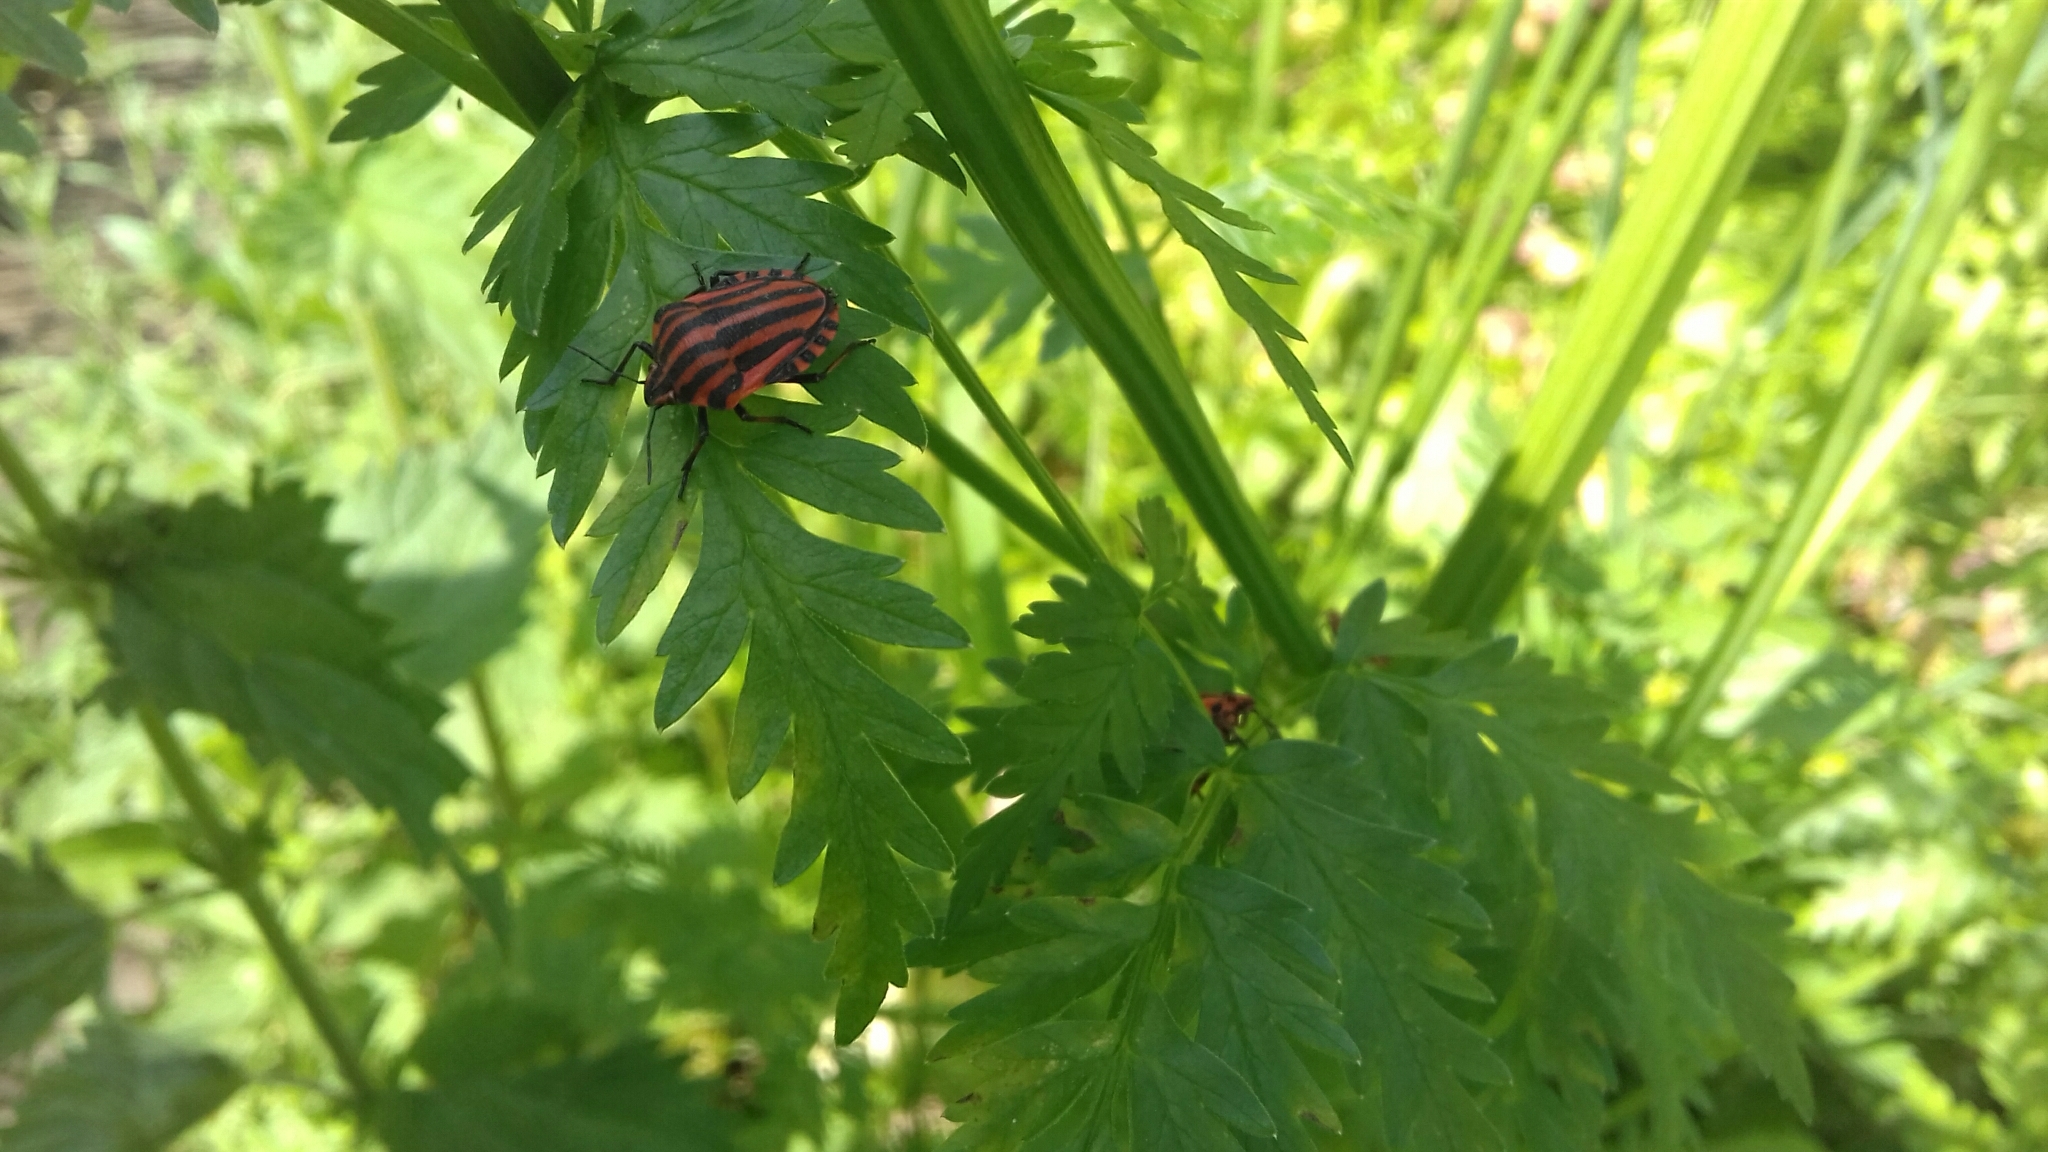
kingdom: Animalia
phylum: Arthropoda
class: Insecta
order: Hemiptera
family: Pentatomidae
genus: Graphosoma
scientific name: Graphosoma italicum
